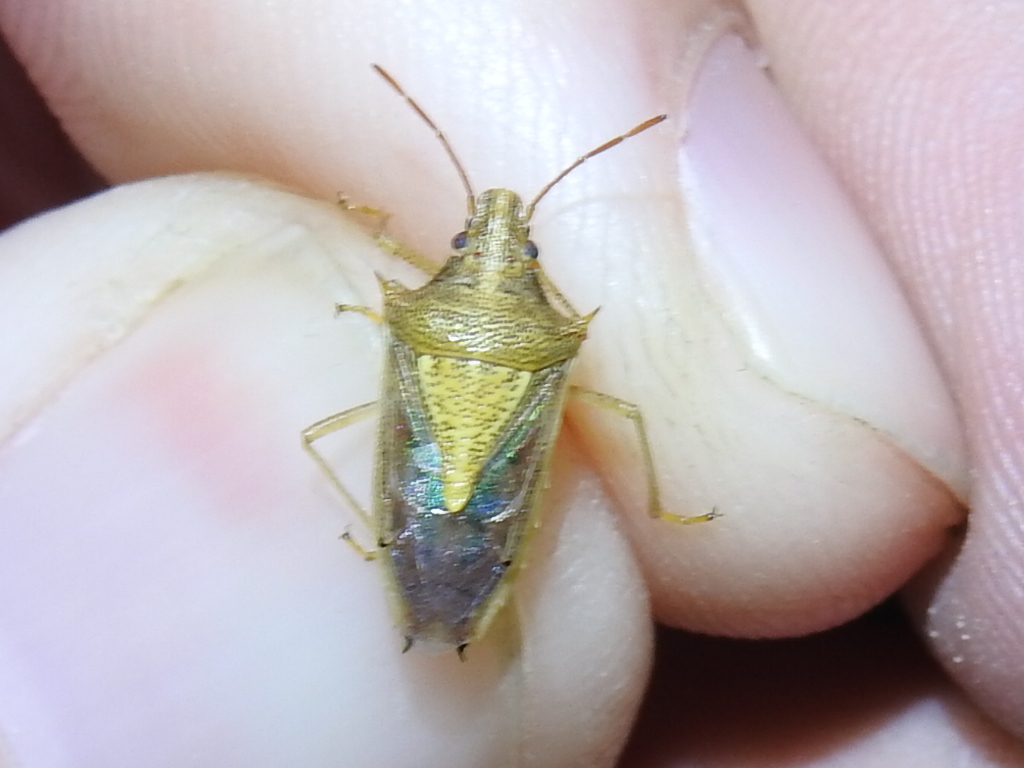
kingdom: Animalia
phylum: Arthropoda
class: Insecta
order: Hemiptera
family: Pentatomidae
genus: Oebalus
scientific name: Oebalus pugnax
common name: Rice stink bug
